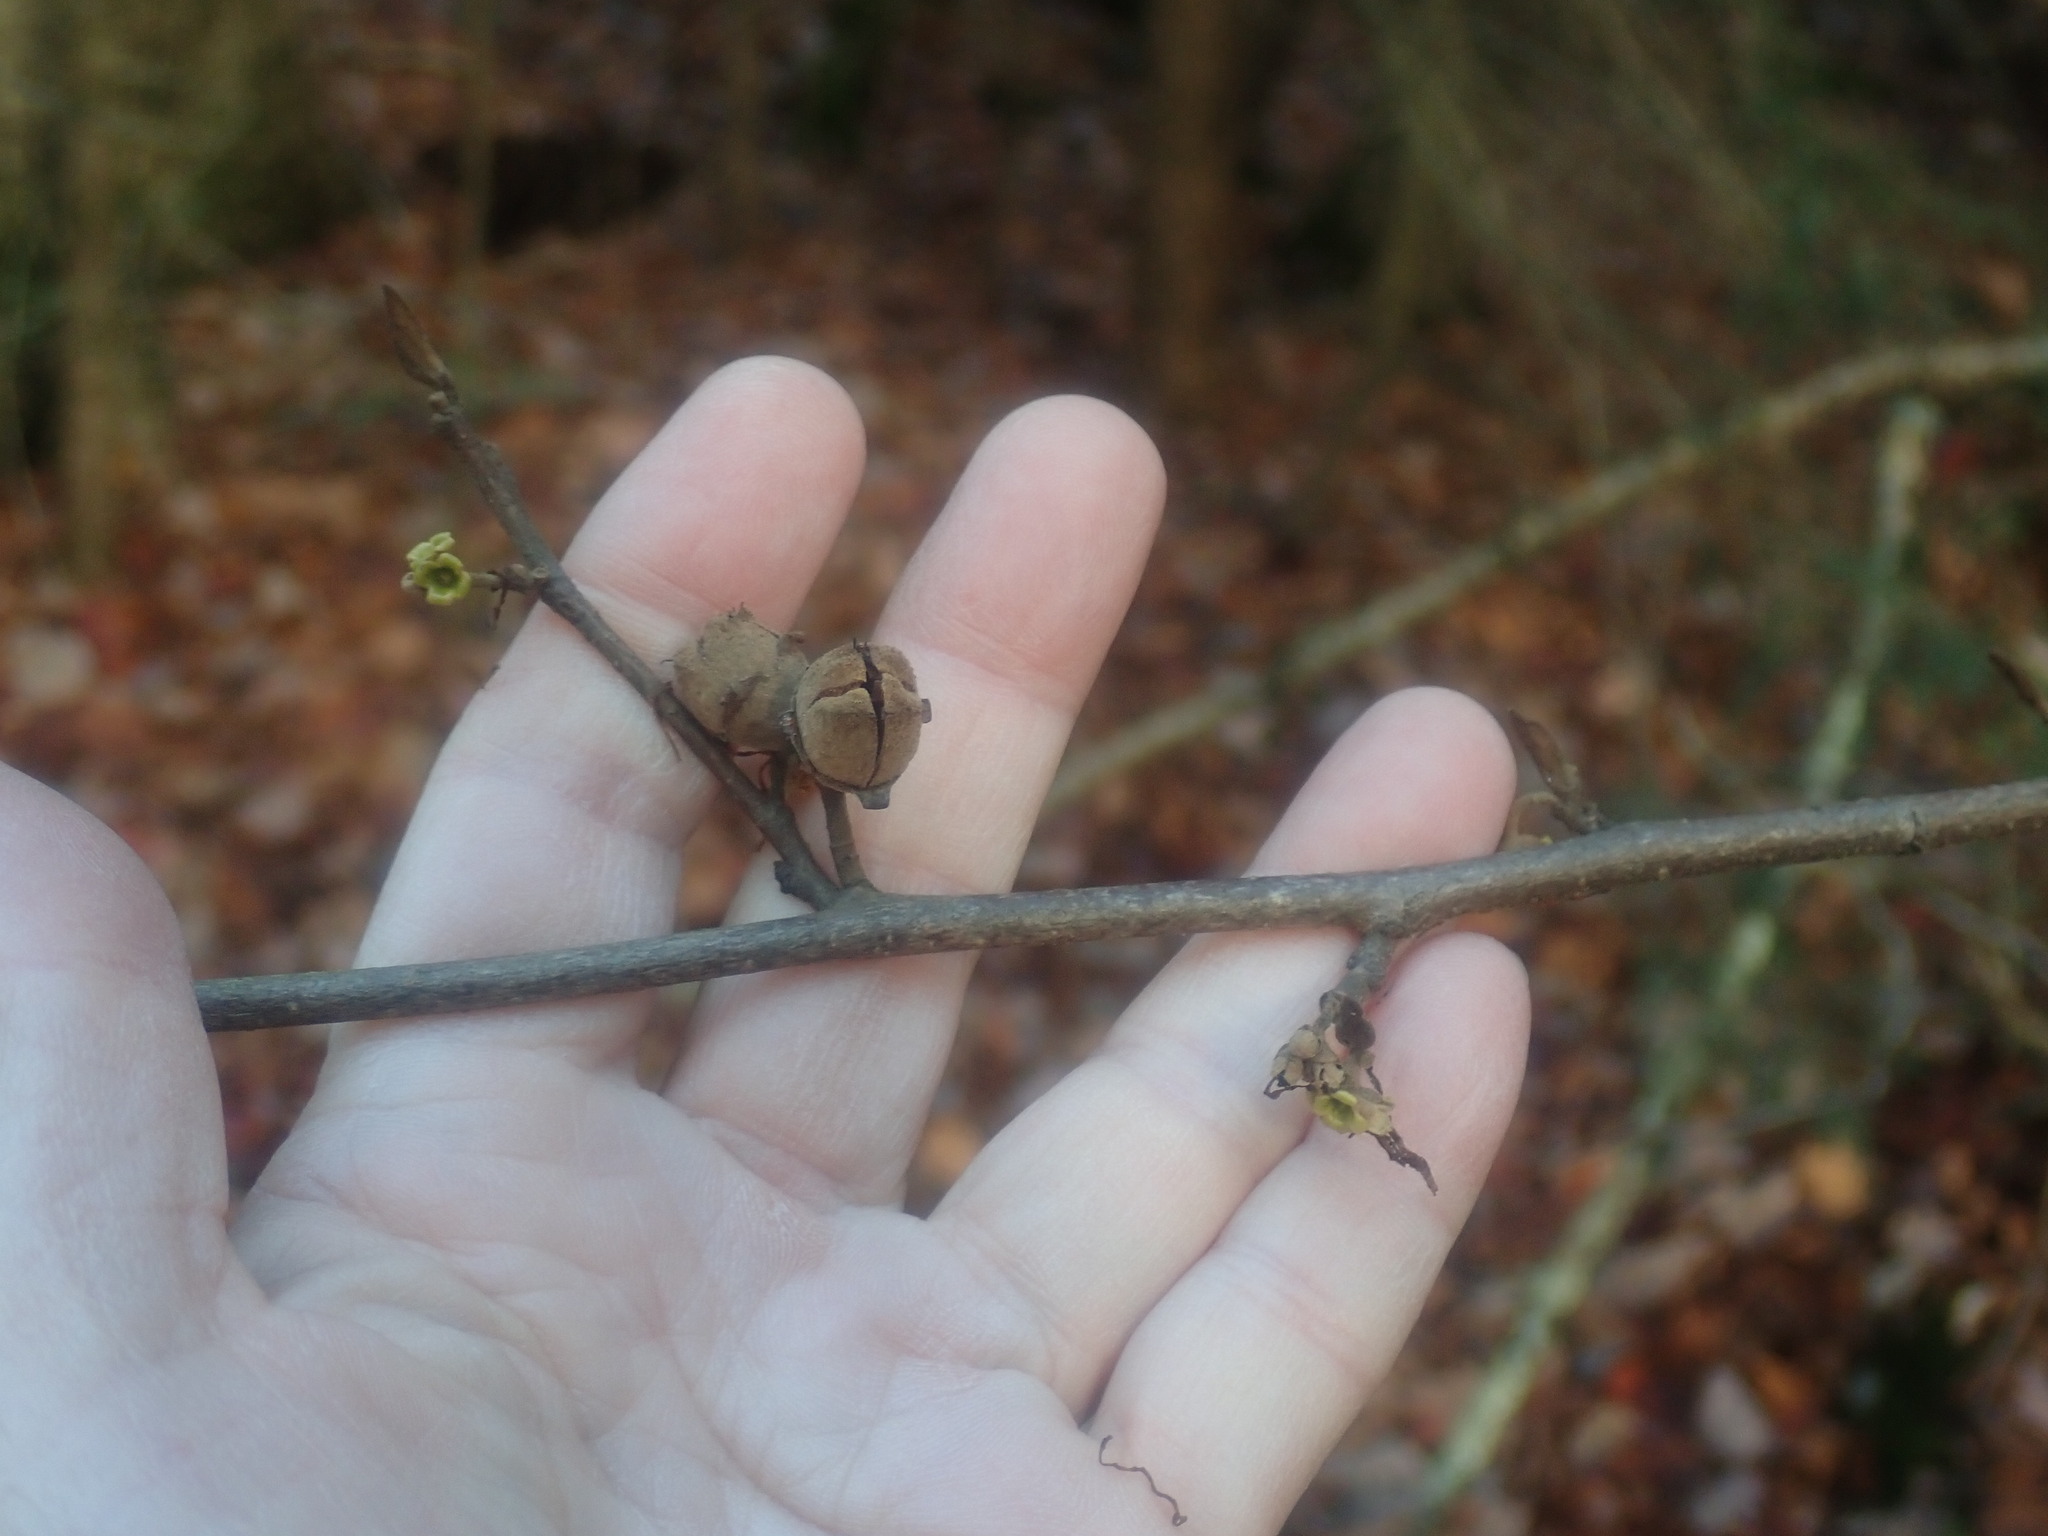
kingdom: Plantae
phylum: Tracheophyta
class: Magnoliopsida
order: Saxifragales
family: Hamamelidaceae
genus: Hamamelis
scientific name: Hamamelis virginiana
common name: Witch-hazel
